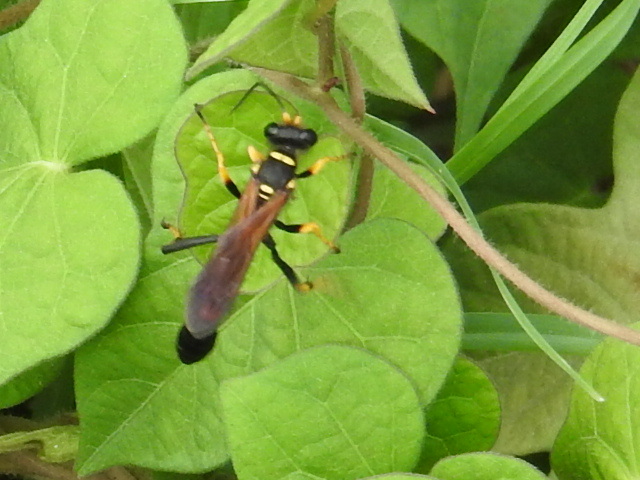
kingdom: Animalia
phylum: Arthropoda
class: Insecta
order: Hymenoptera
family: Sphecidae
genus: Sceliphron
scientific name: Sceliphron caementarium
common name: Mud dauber
